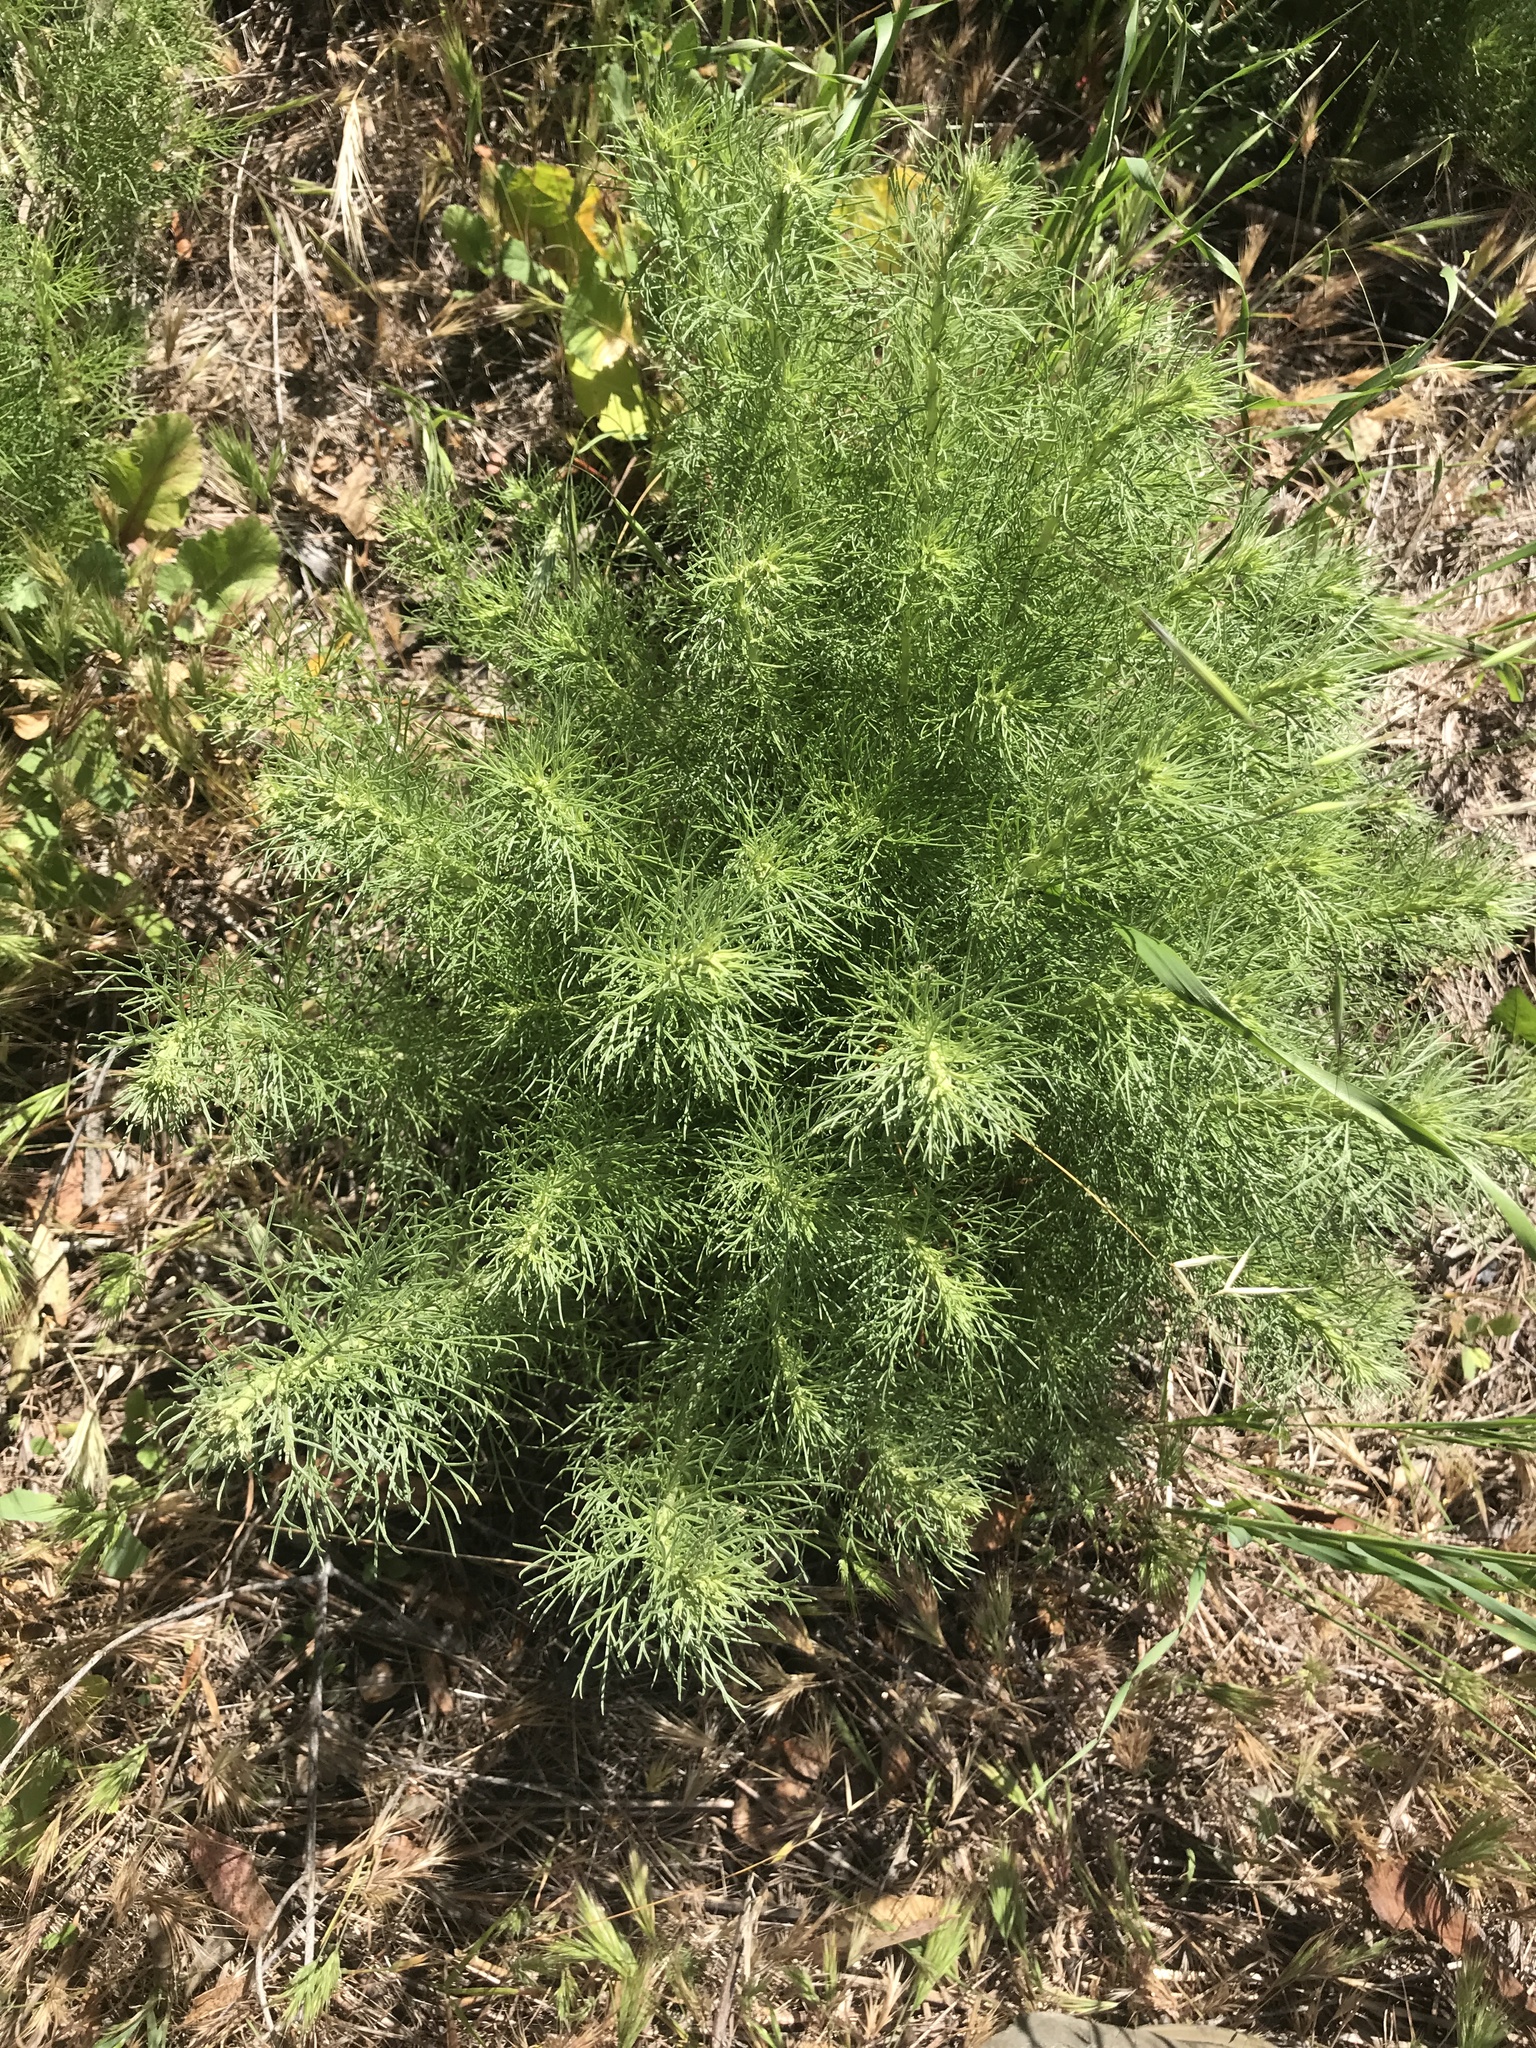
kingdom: Plantae
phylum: Tracheophyta
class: Magnoliopsida
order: Asterales
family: Asteraceae
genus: Artemisia
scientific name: Artemisia californica
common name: California sagebrush
